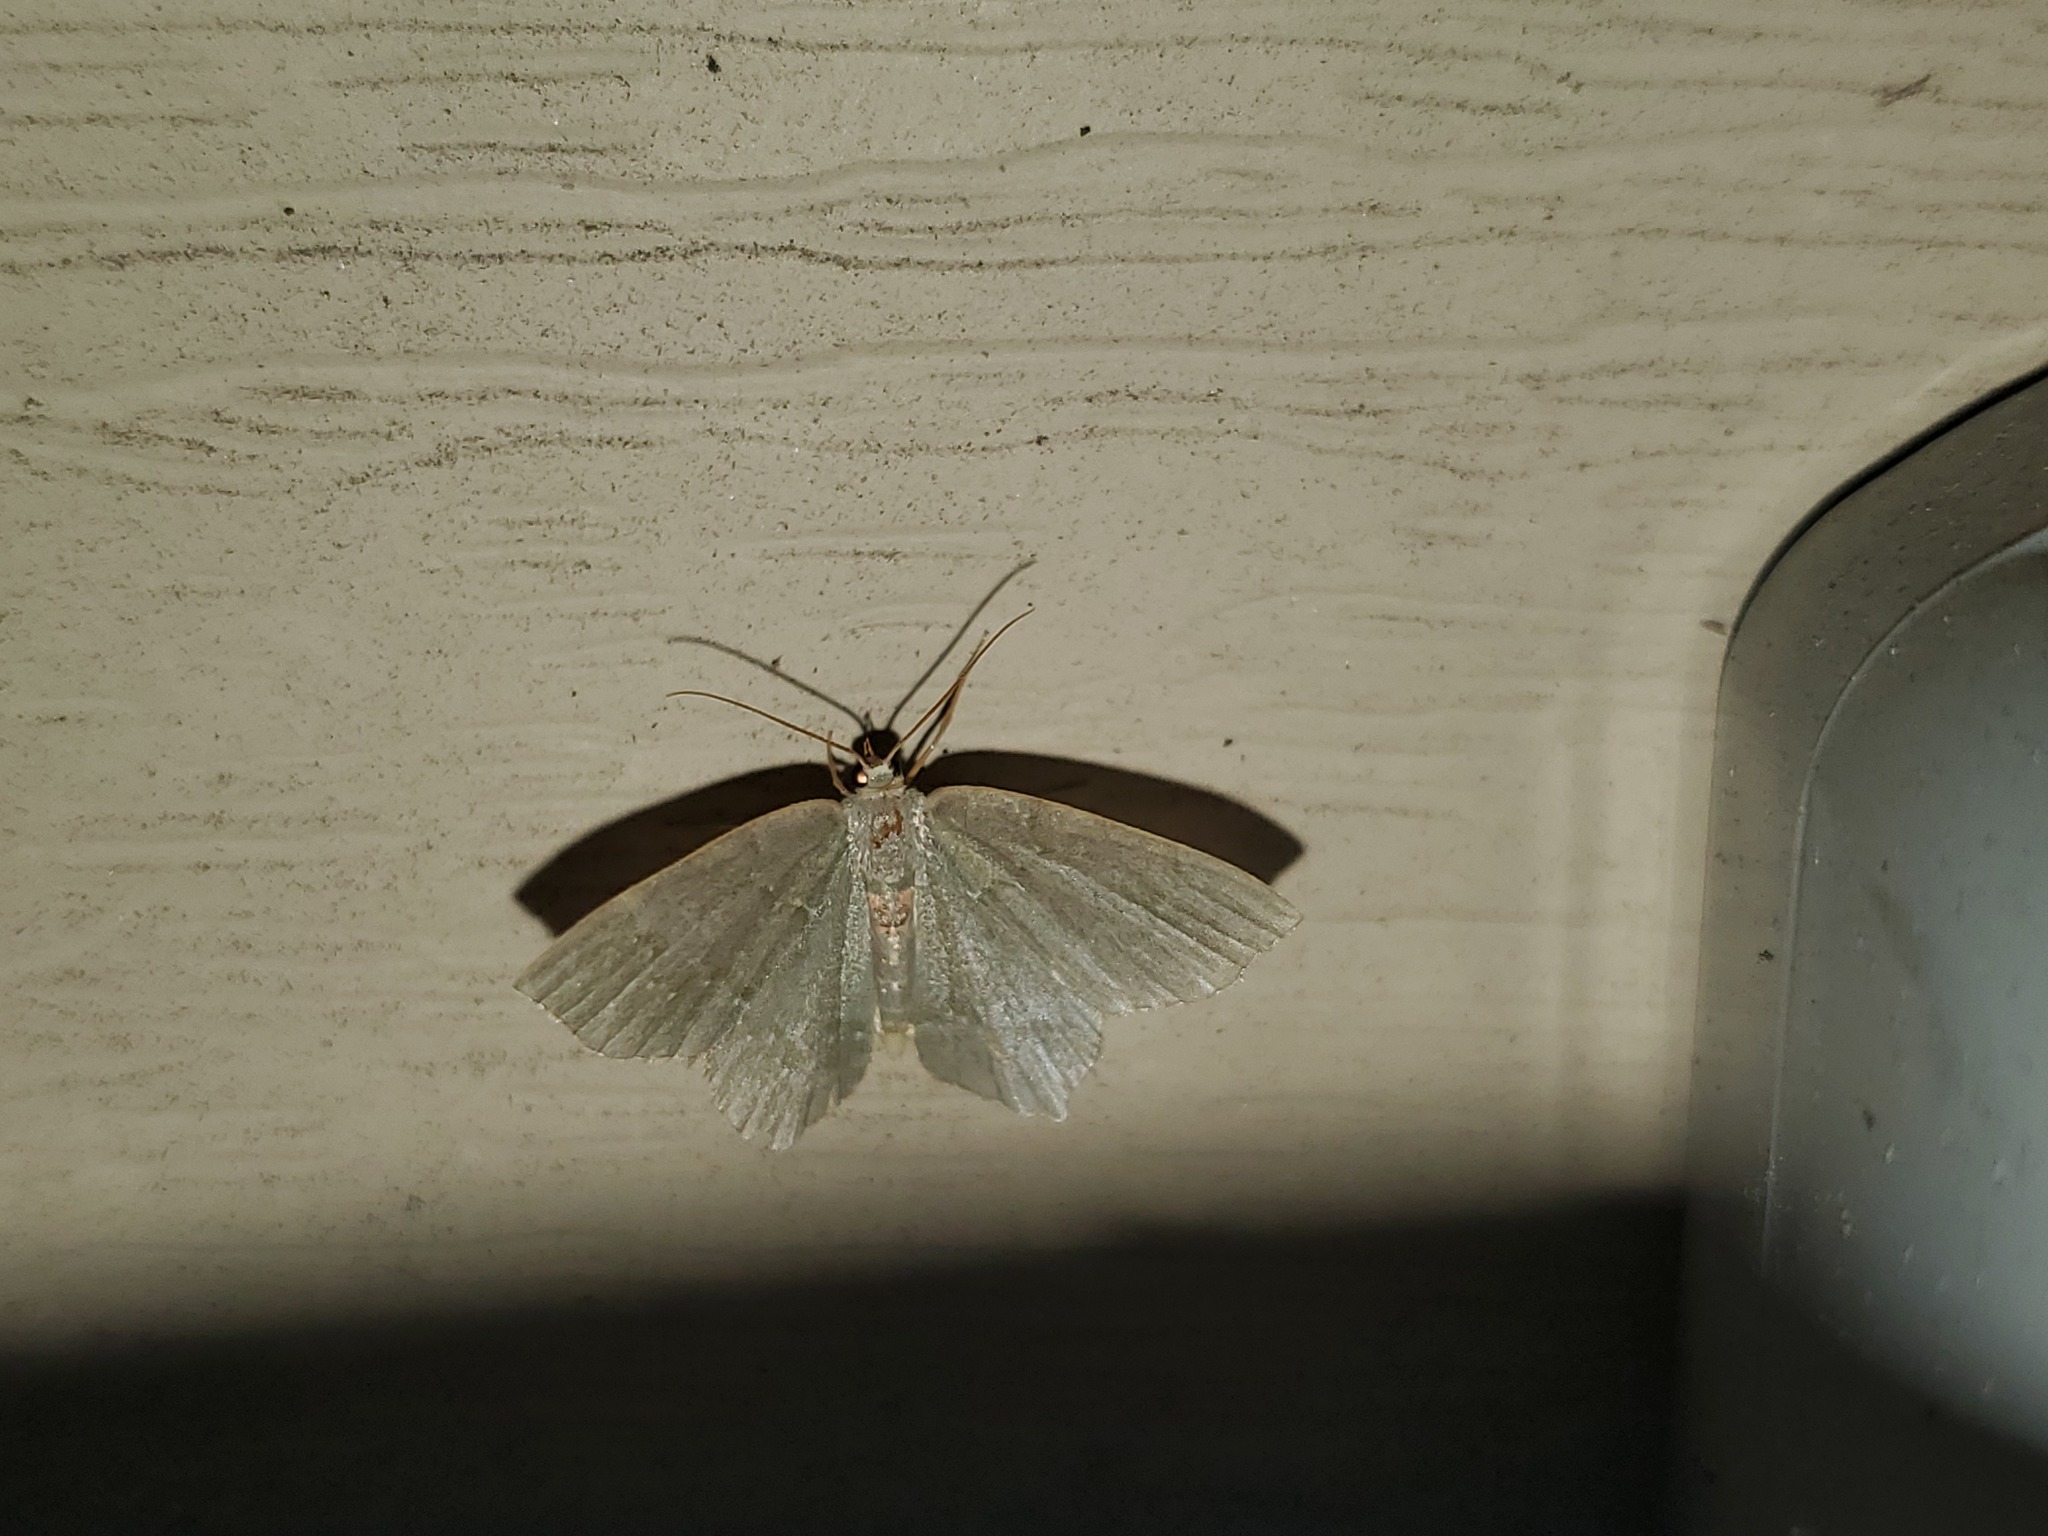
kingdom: Animalia
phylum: Arthropoda
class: Insecta
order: Lepidoptera
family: Geometridae
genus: Thalera
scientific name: Thalera pistasciaria
